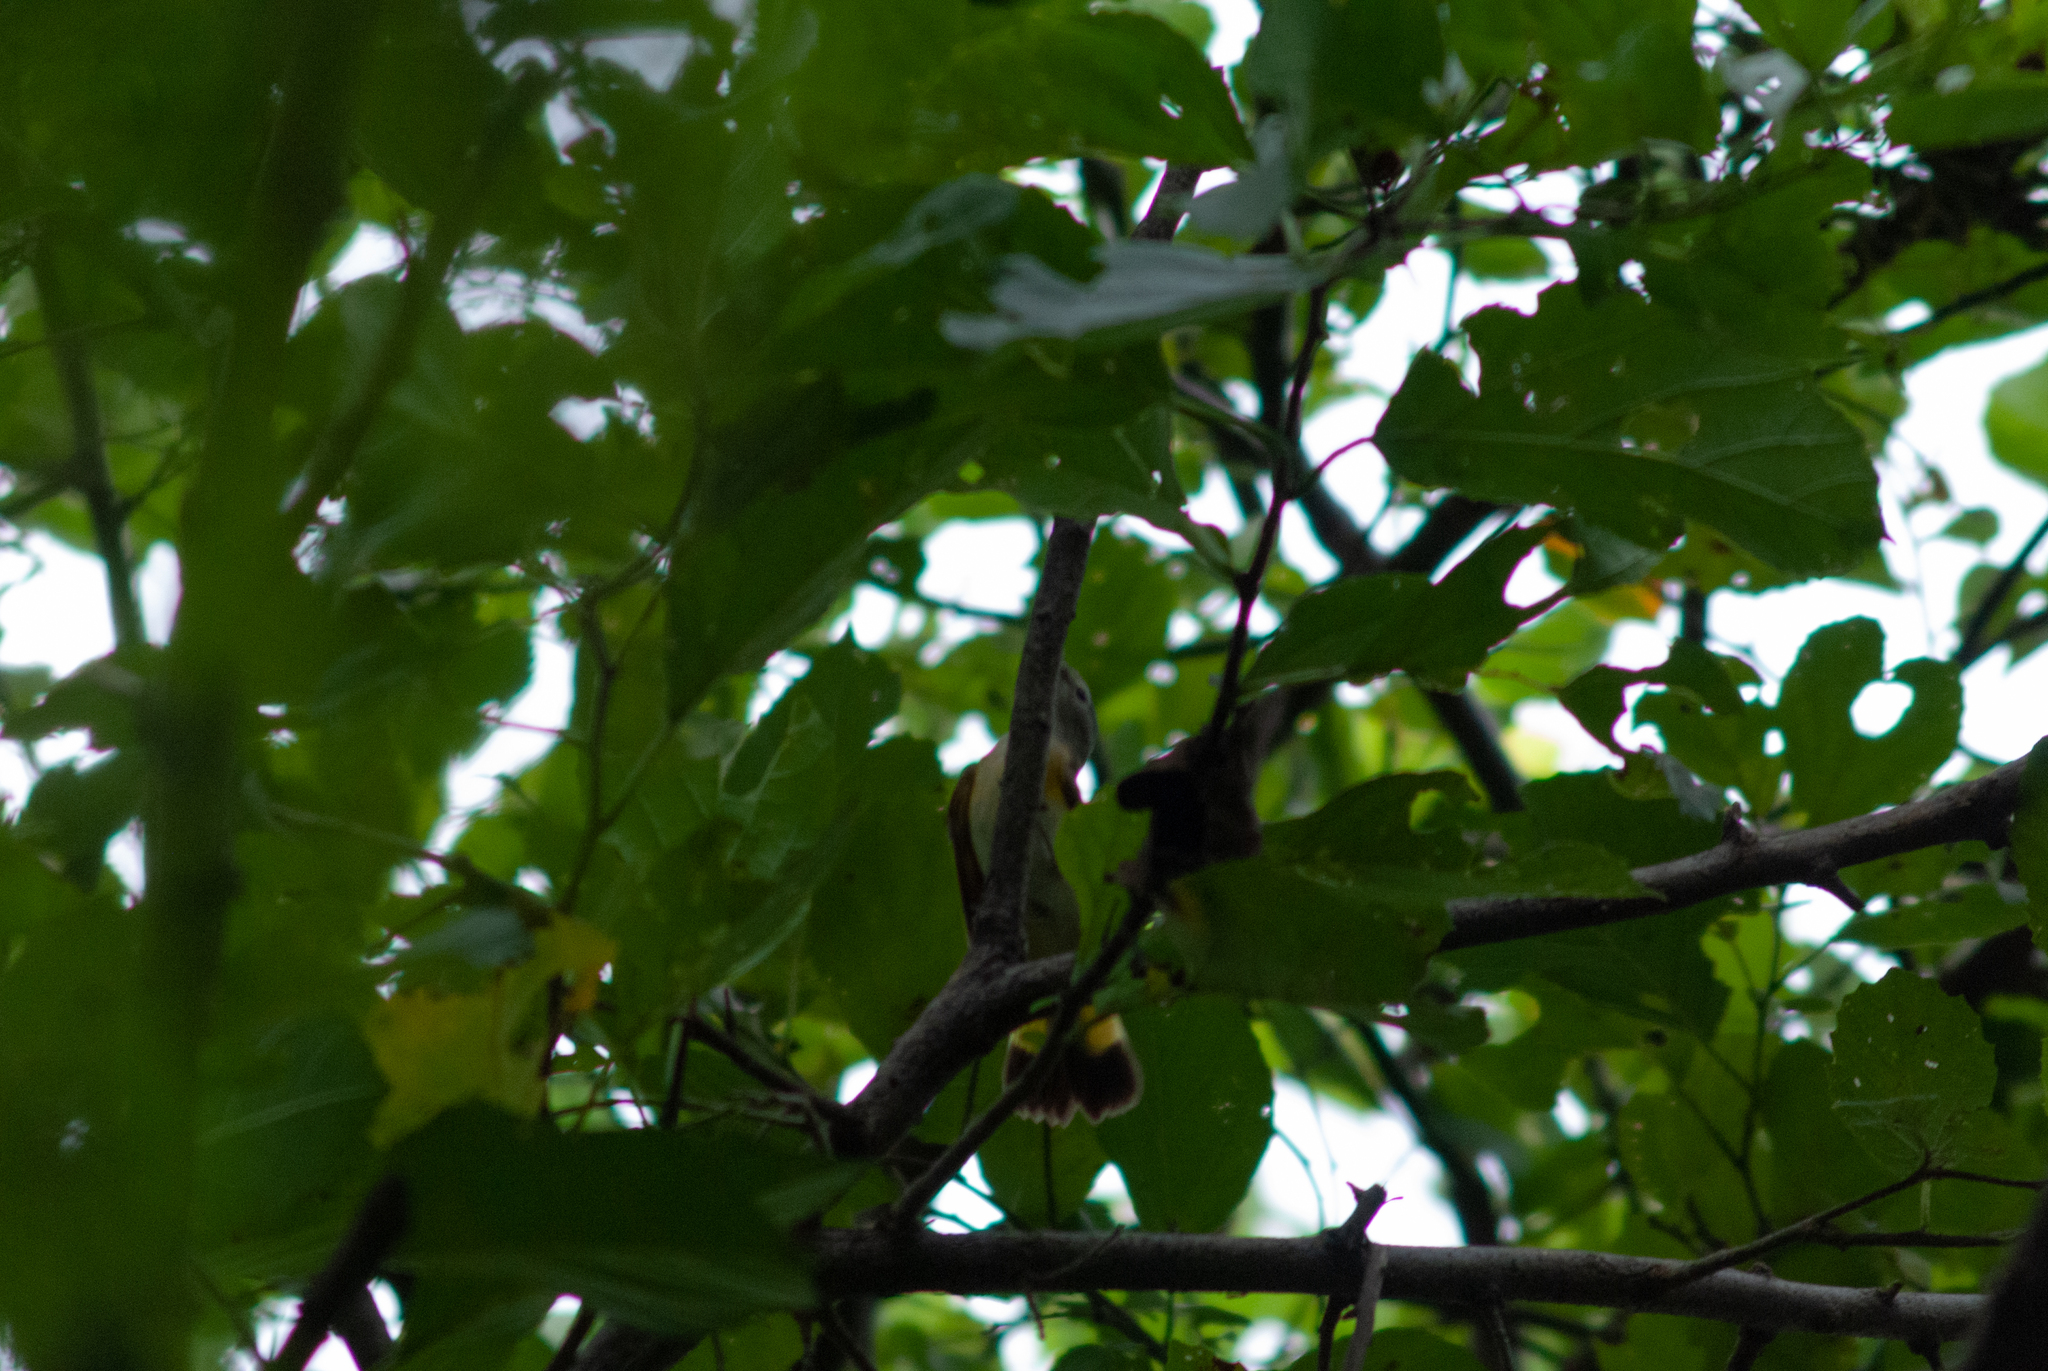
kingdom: Animalia
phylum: Chordata
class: Aves
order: Passeriformes
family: Parulidae
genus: Setophaga
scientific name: Setophaga ruticilla
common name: American redstart
